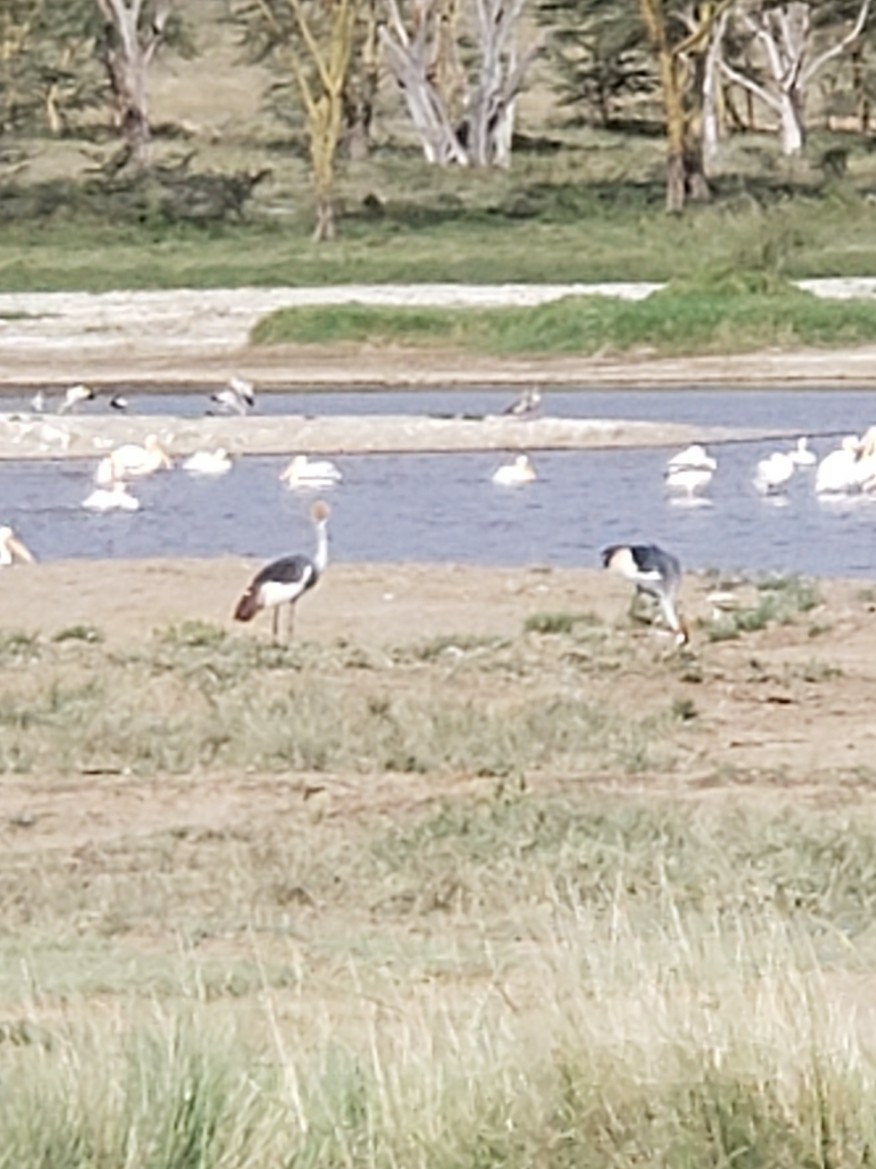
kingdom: Animalia
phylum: Chordata
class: Aves
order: Gruiformes
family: Gruidae
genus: Balearica
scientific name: Balearica regulorum
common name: Grey crowned crane
